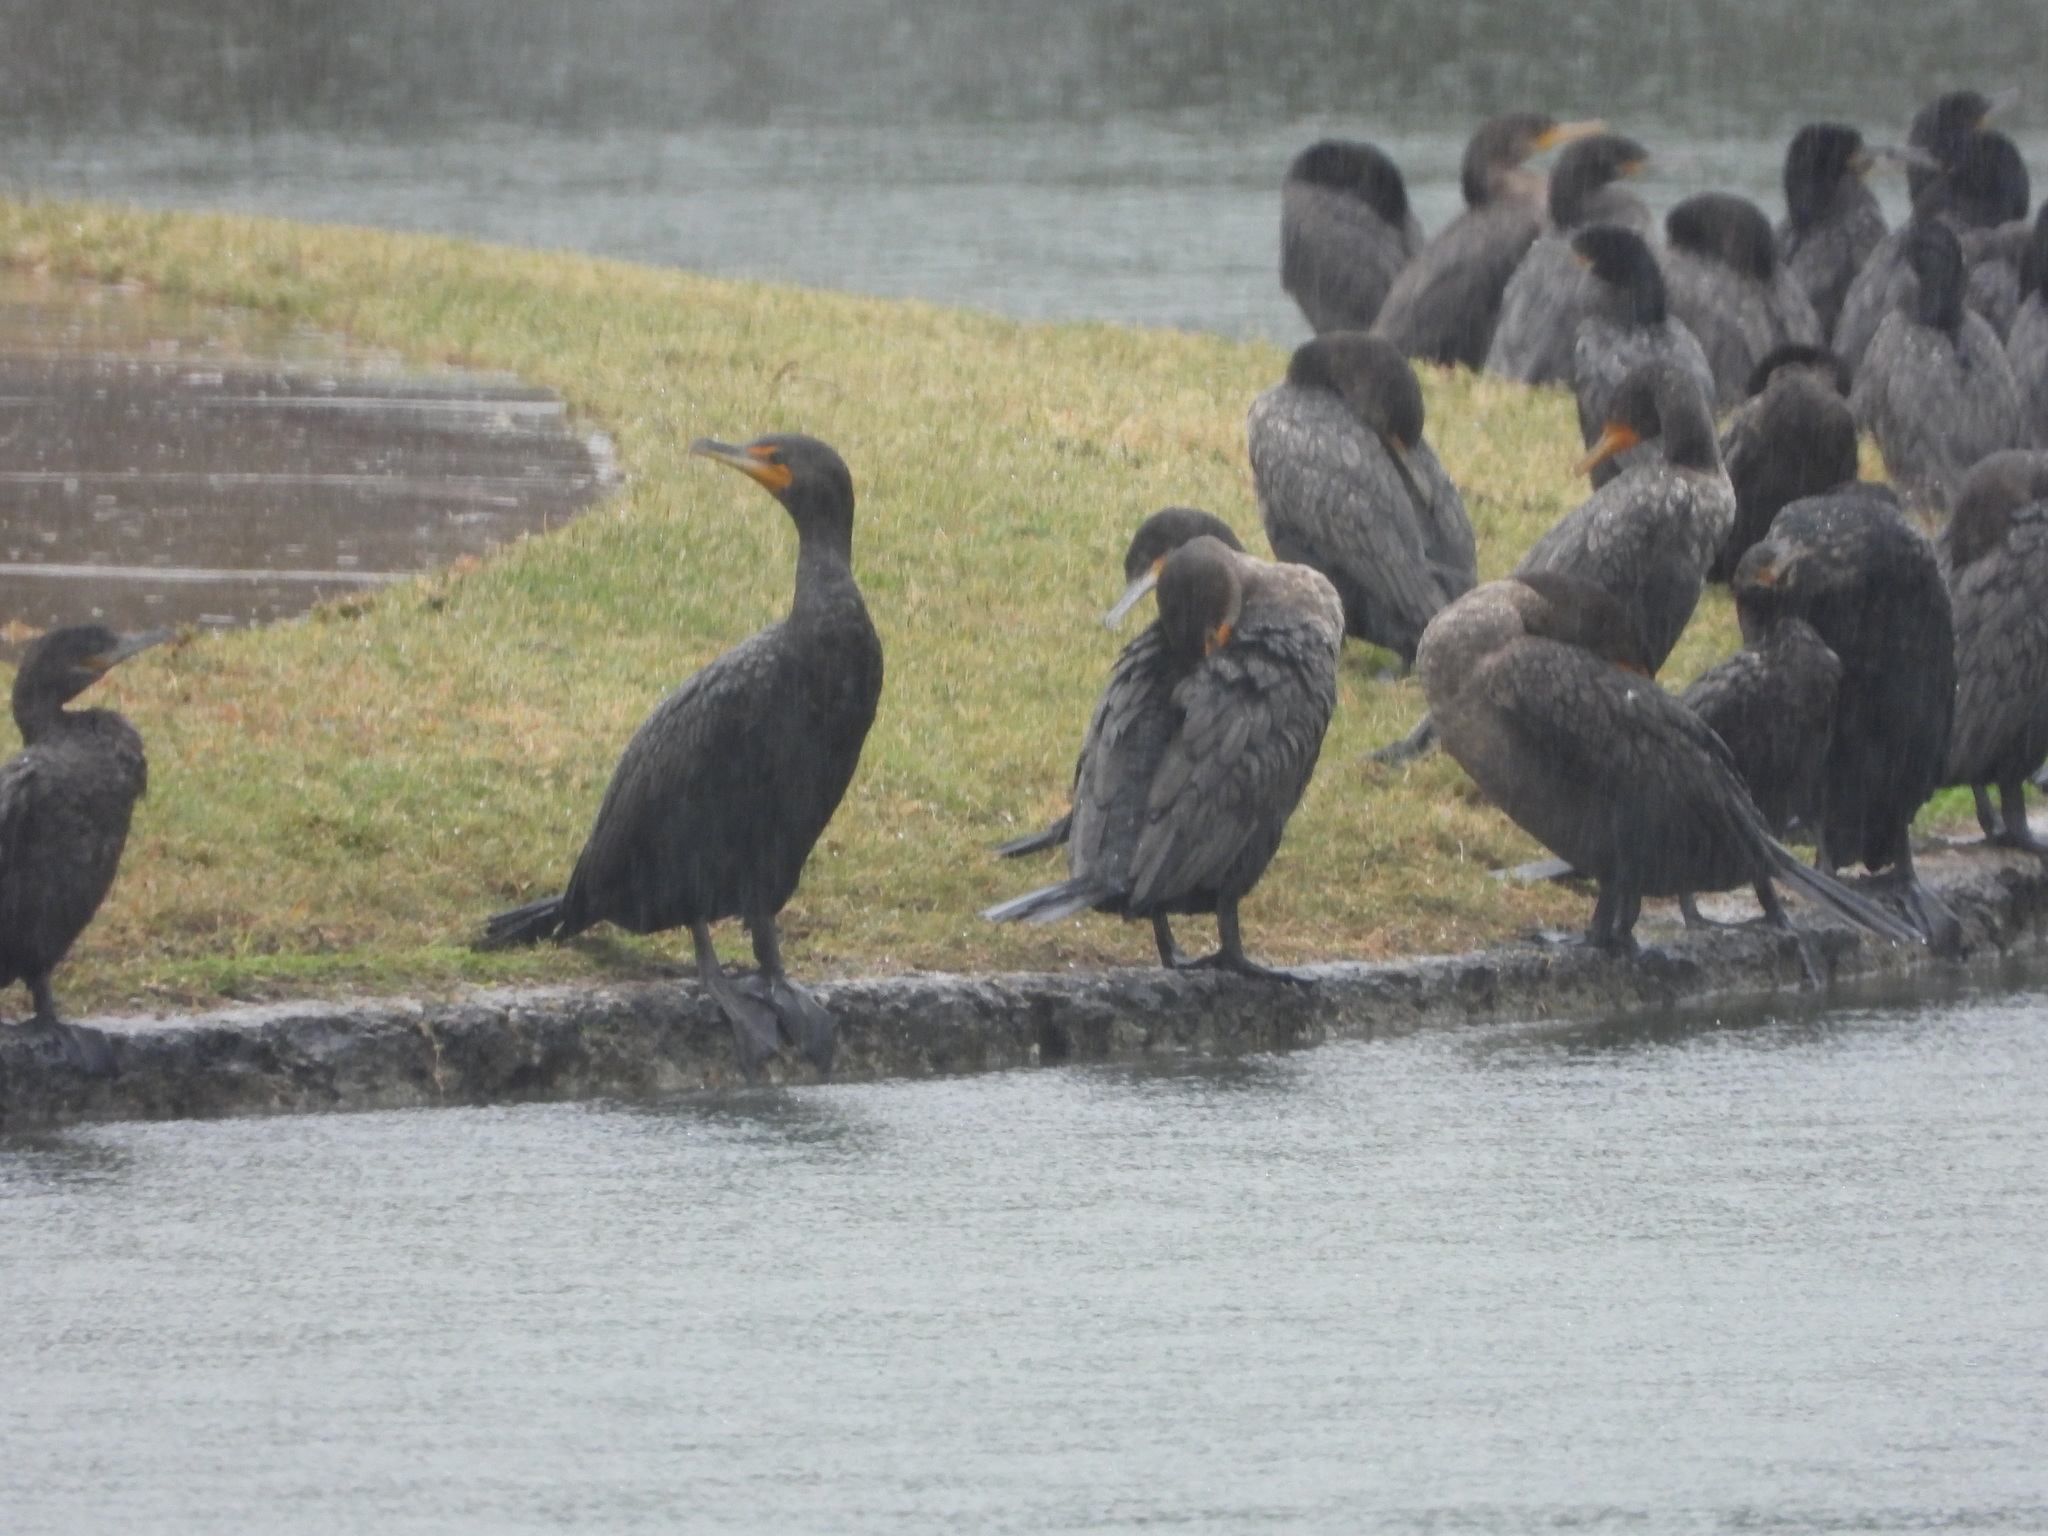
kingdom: Animalia
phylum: Chordata
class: Aves
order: Suliformes
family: Phalacrocoracidae
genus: Phalacrocorax
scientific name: Phalacrocorax auritus
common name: Double-crested cormorant
